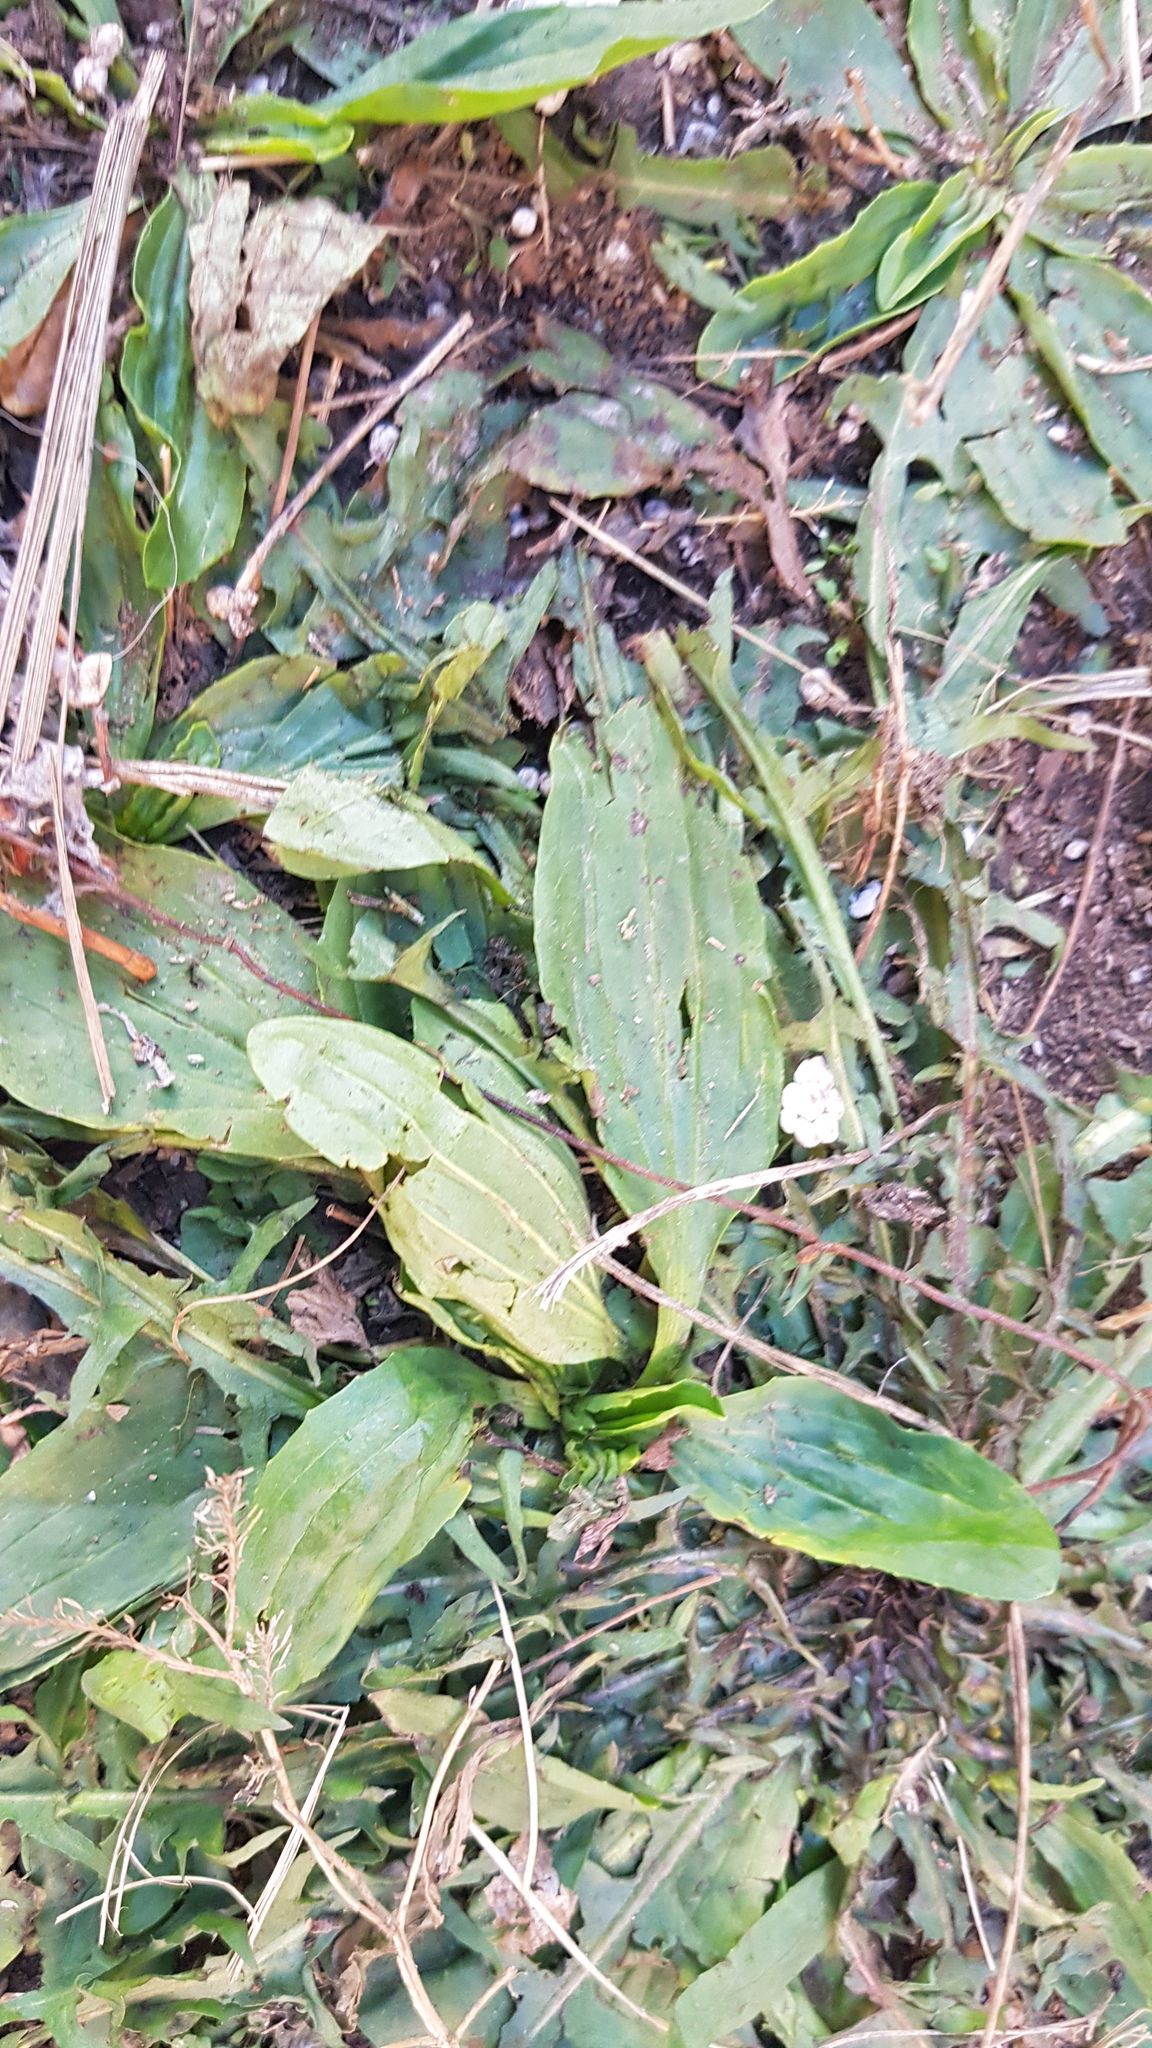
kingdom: Plantae
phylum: Tracheophyta
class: Magnoliopsida
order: Lamiales
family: Plantaginaceae
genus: Plantago
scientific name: Plantago depressa
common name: Depressed plantain
